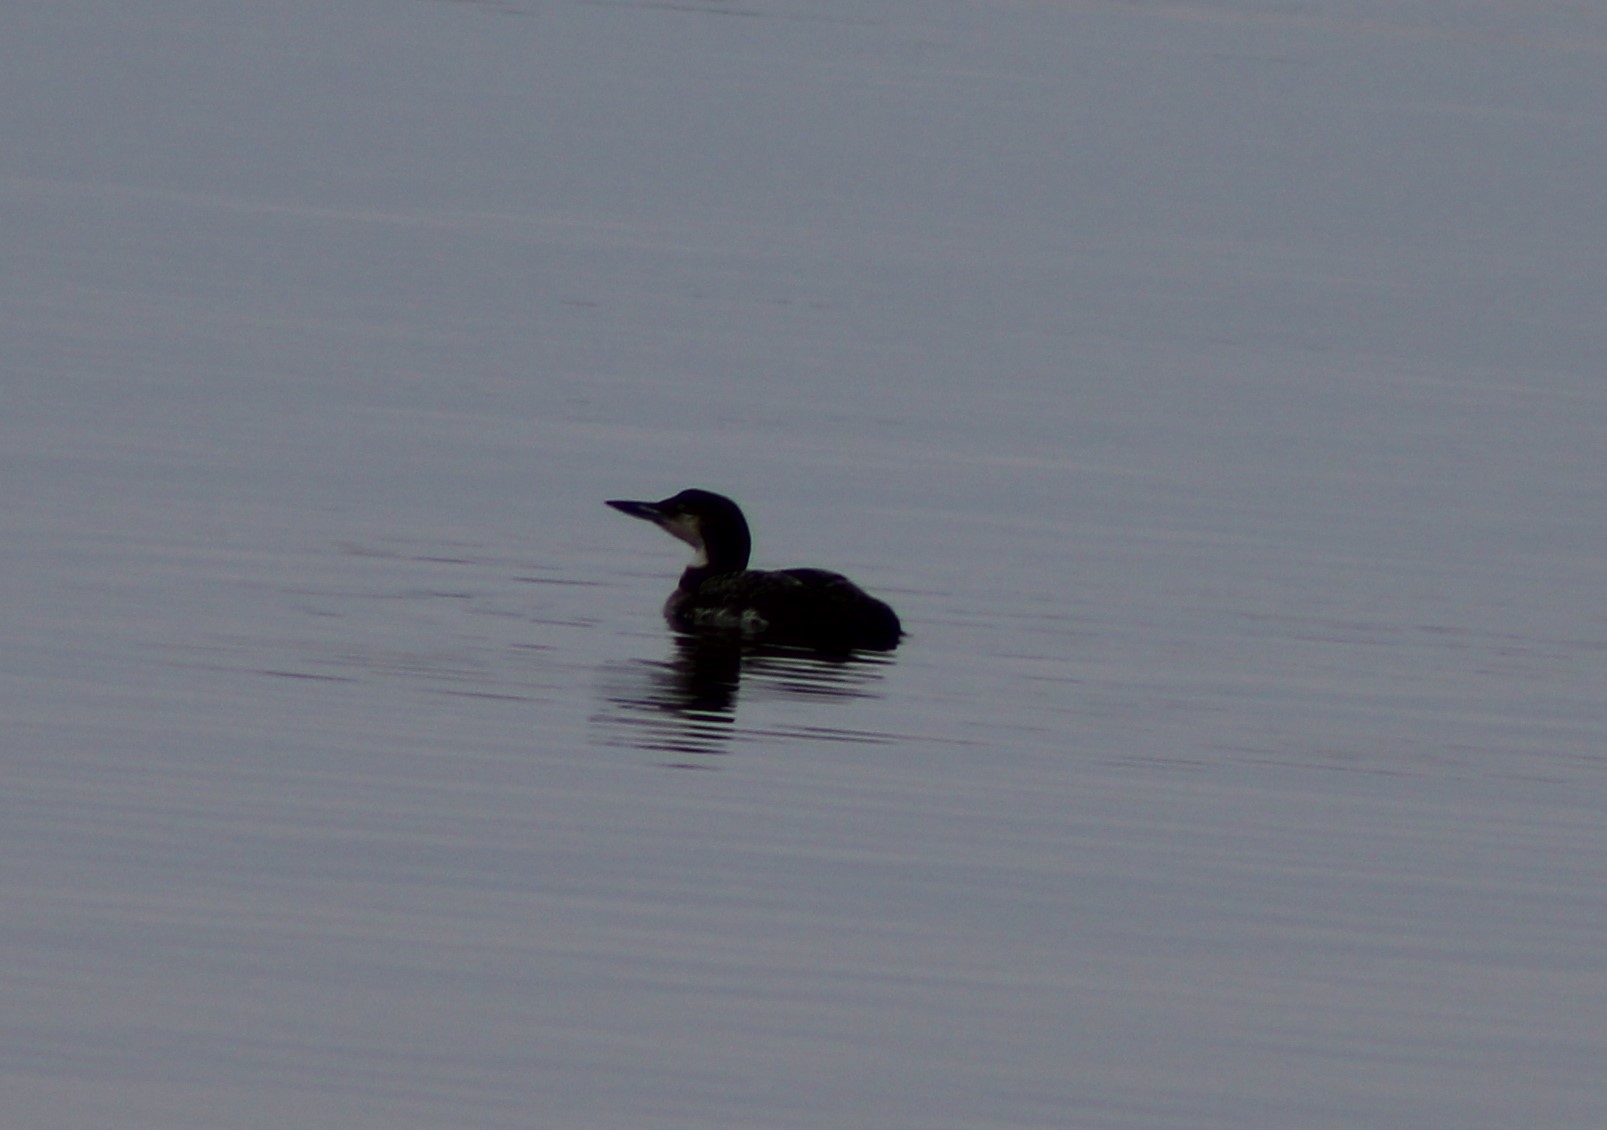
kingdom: Animalia
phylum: Chordata
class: Aves
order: Gaviiformes
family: Gaviidae
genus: Gavia
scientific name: Gavia immer
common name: Common loon
